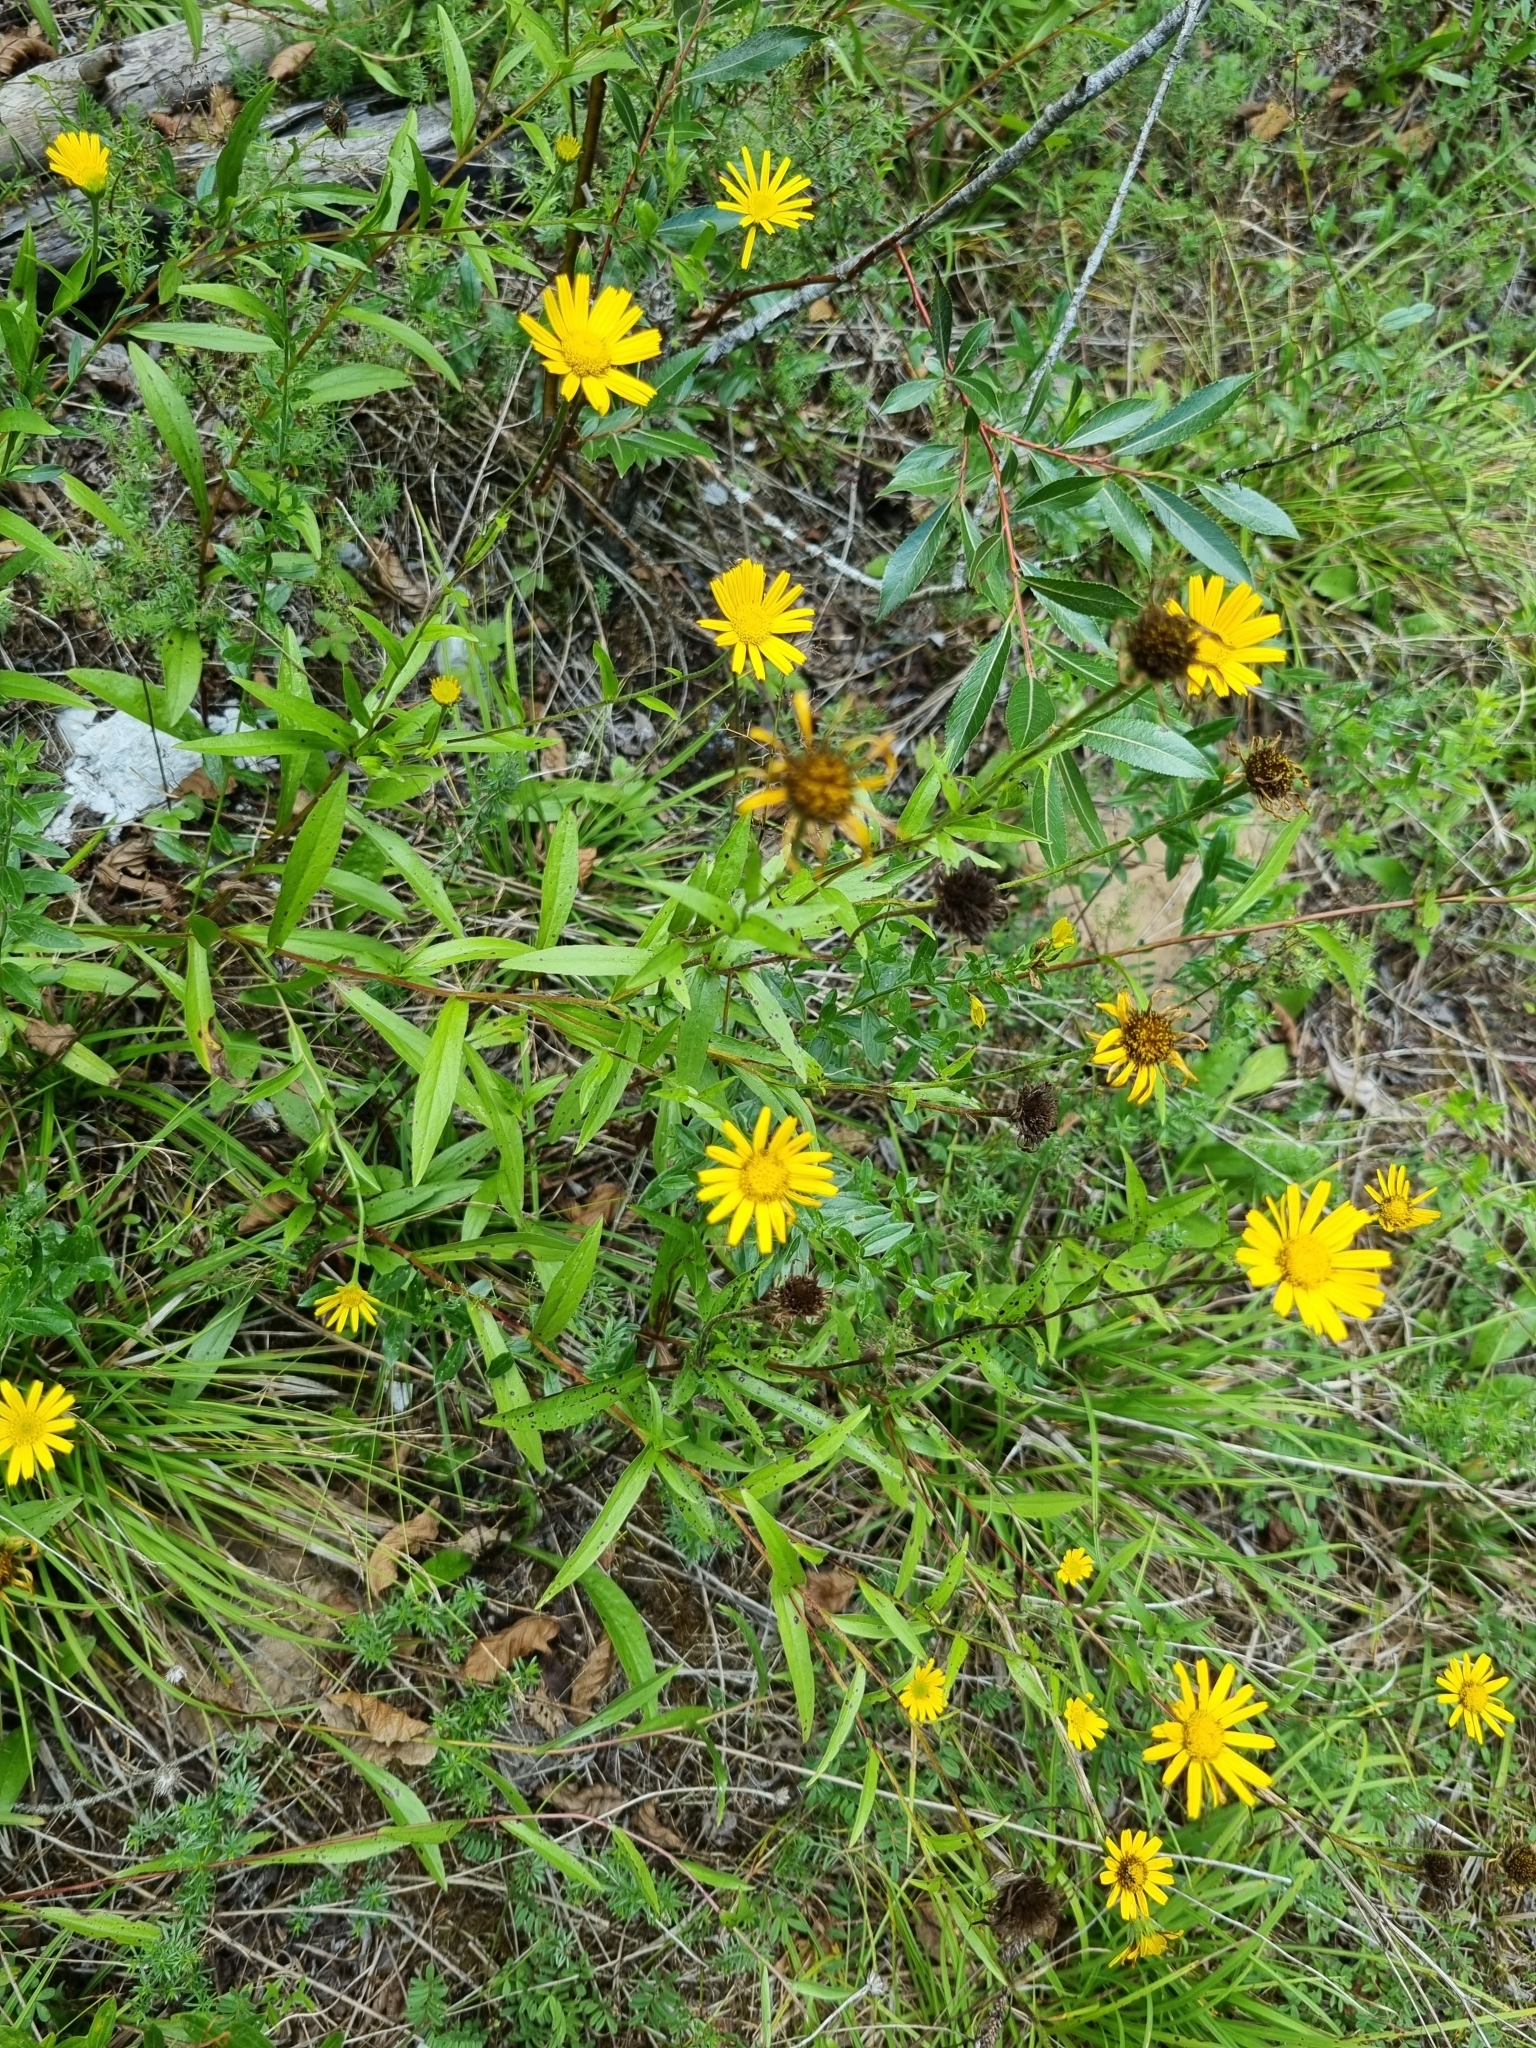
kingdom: Plantae
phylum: Tracheophyta
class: Magnoliopsida
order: Asterales
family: Asteraceae
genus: Buphthalmum
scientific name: Buphthalmum salicifolium
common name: Willow-leaved yellow-oxeye
